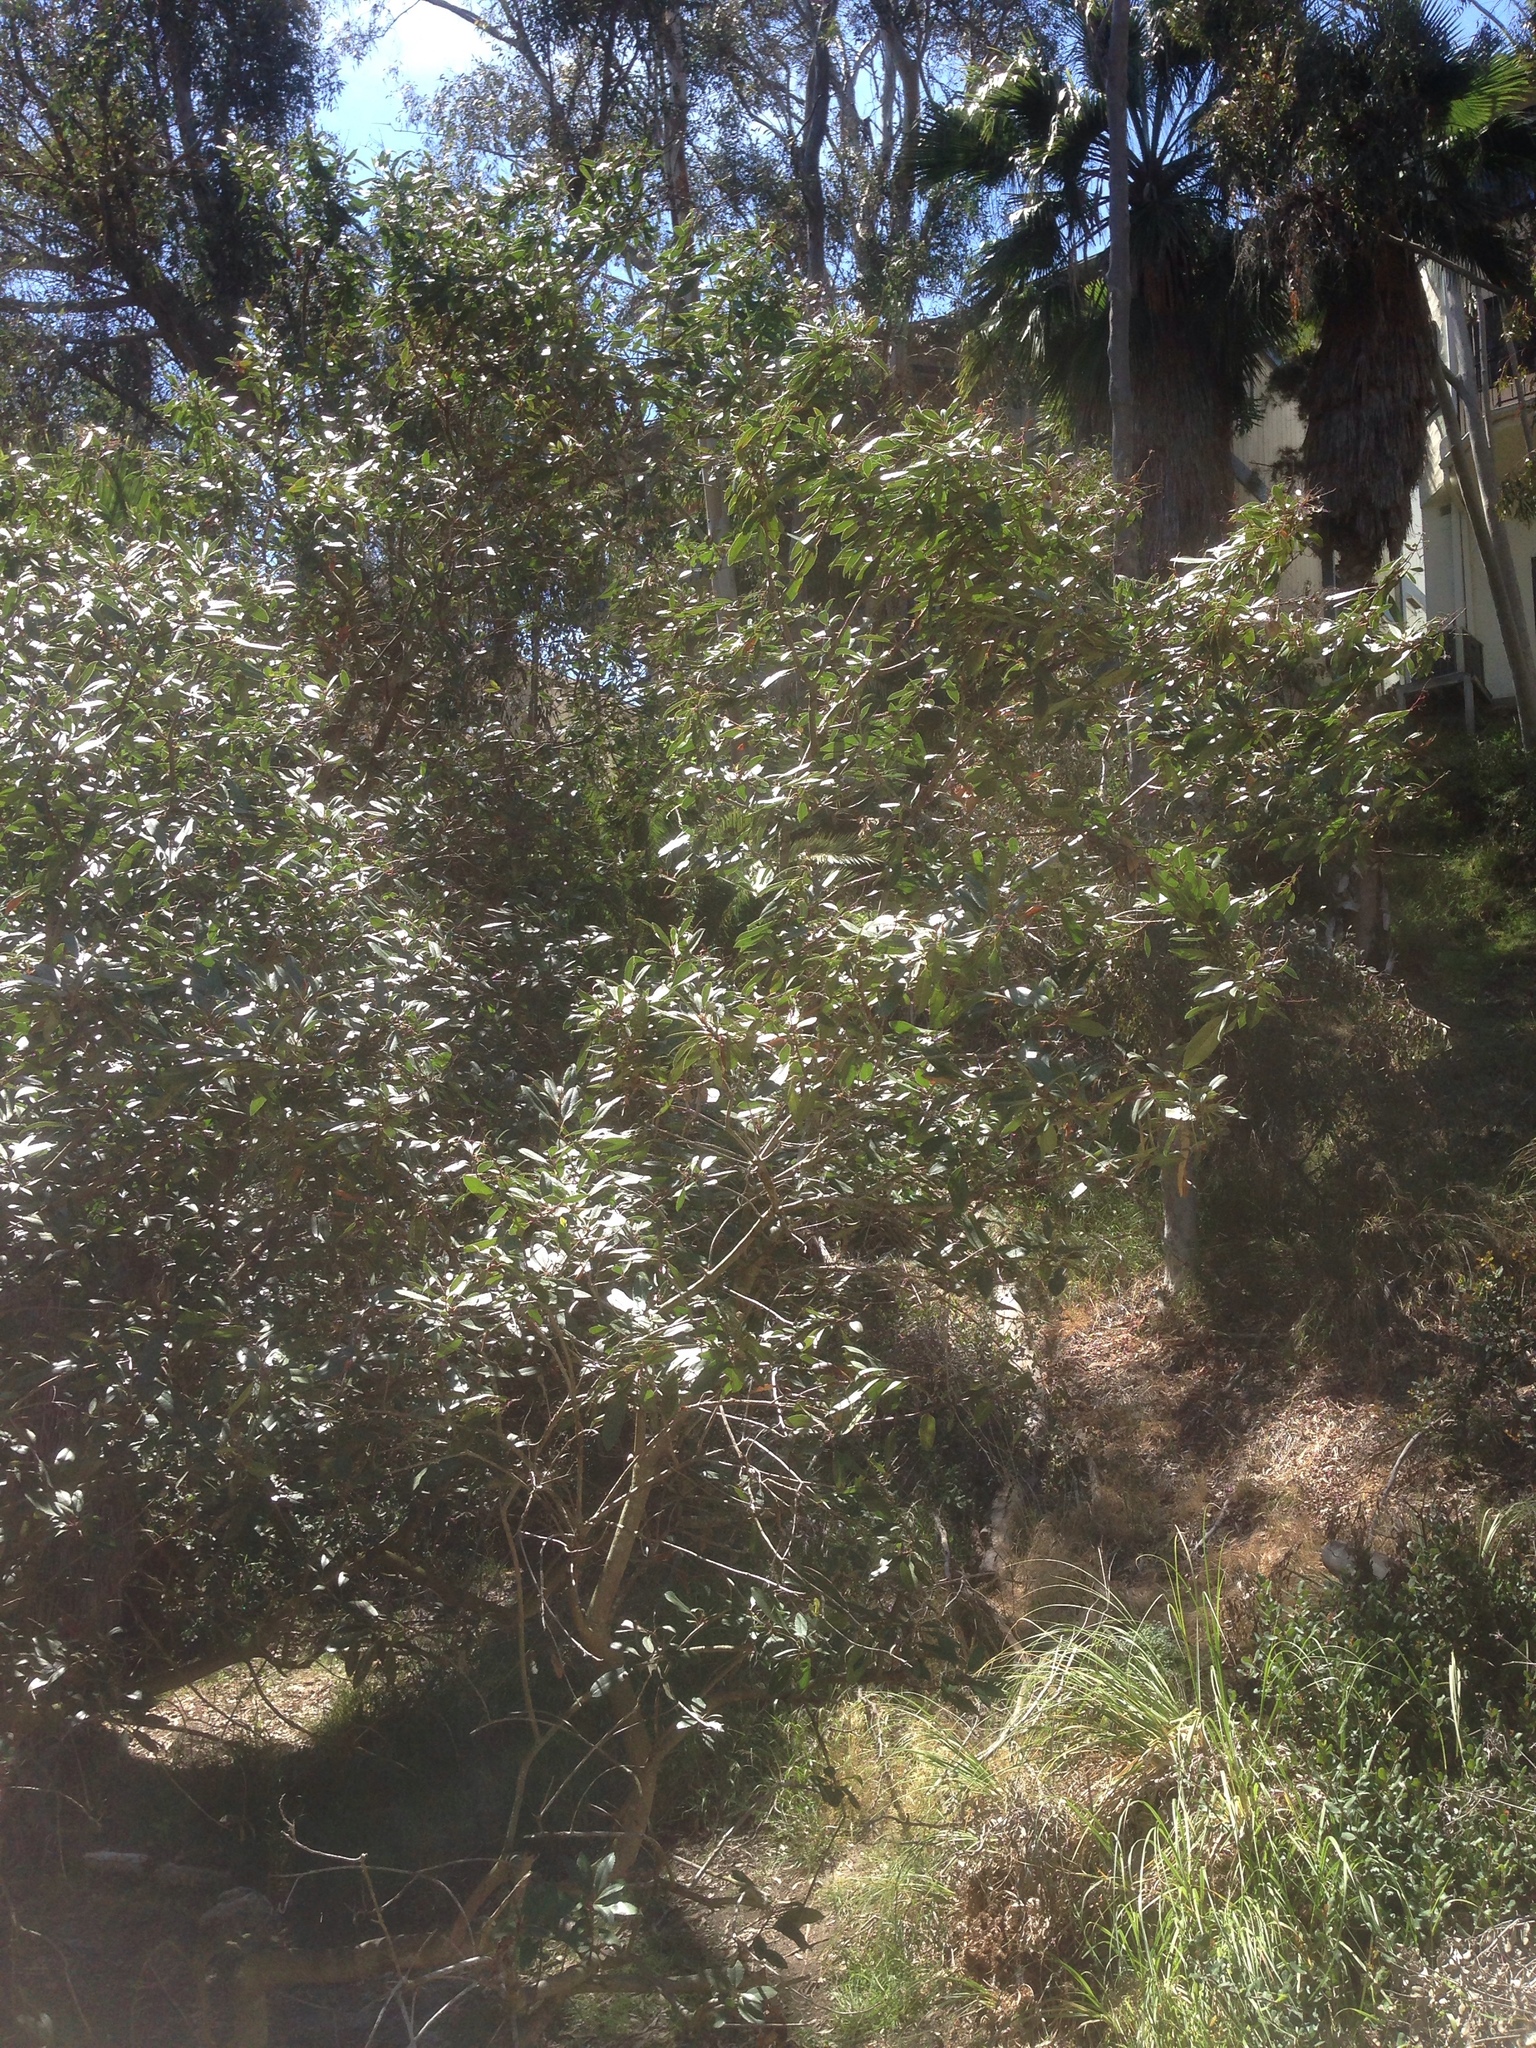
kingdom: Plantae
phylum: Tracheophyta
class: Magnoliopsida
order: Rosales
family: Rosaceae
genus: Heteromeles
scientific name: Heteromeles arbutifolia
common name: California-holly
